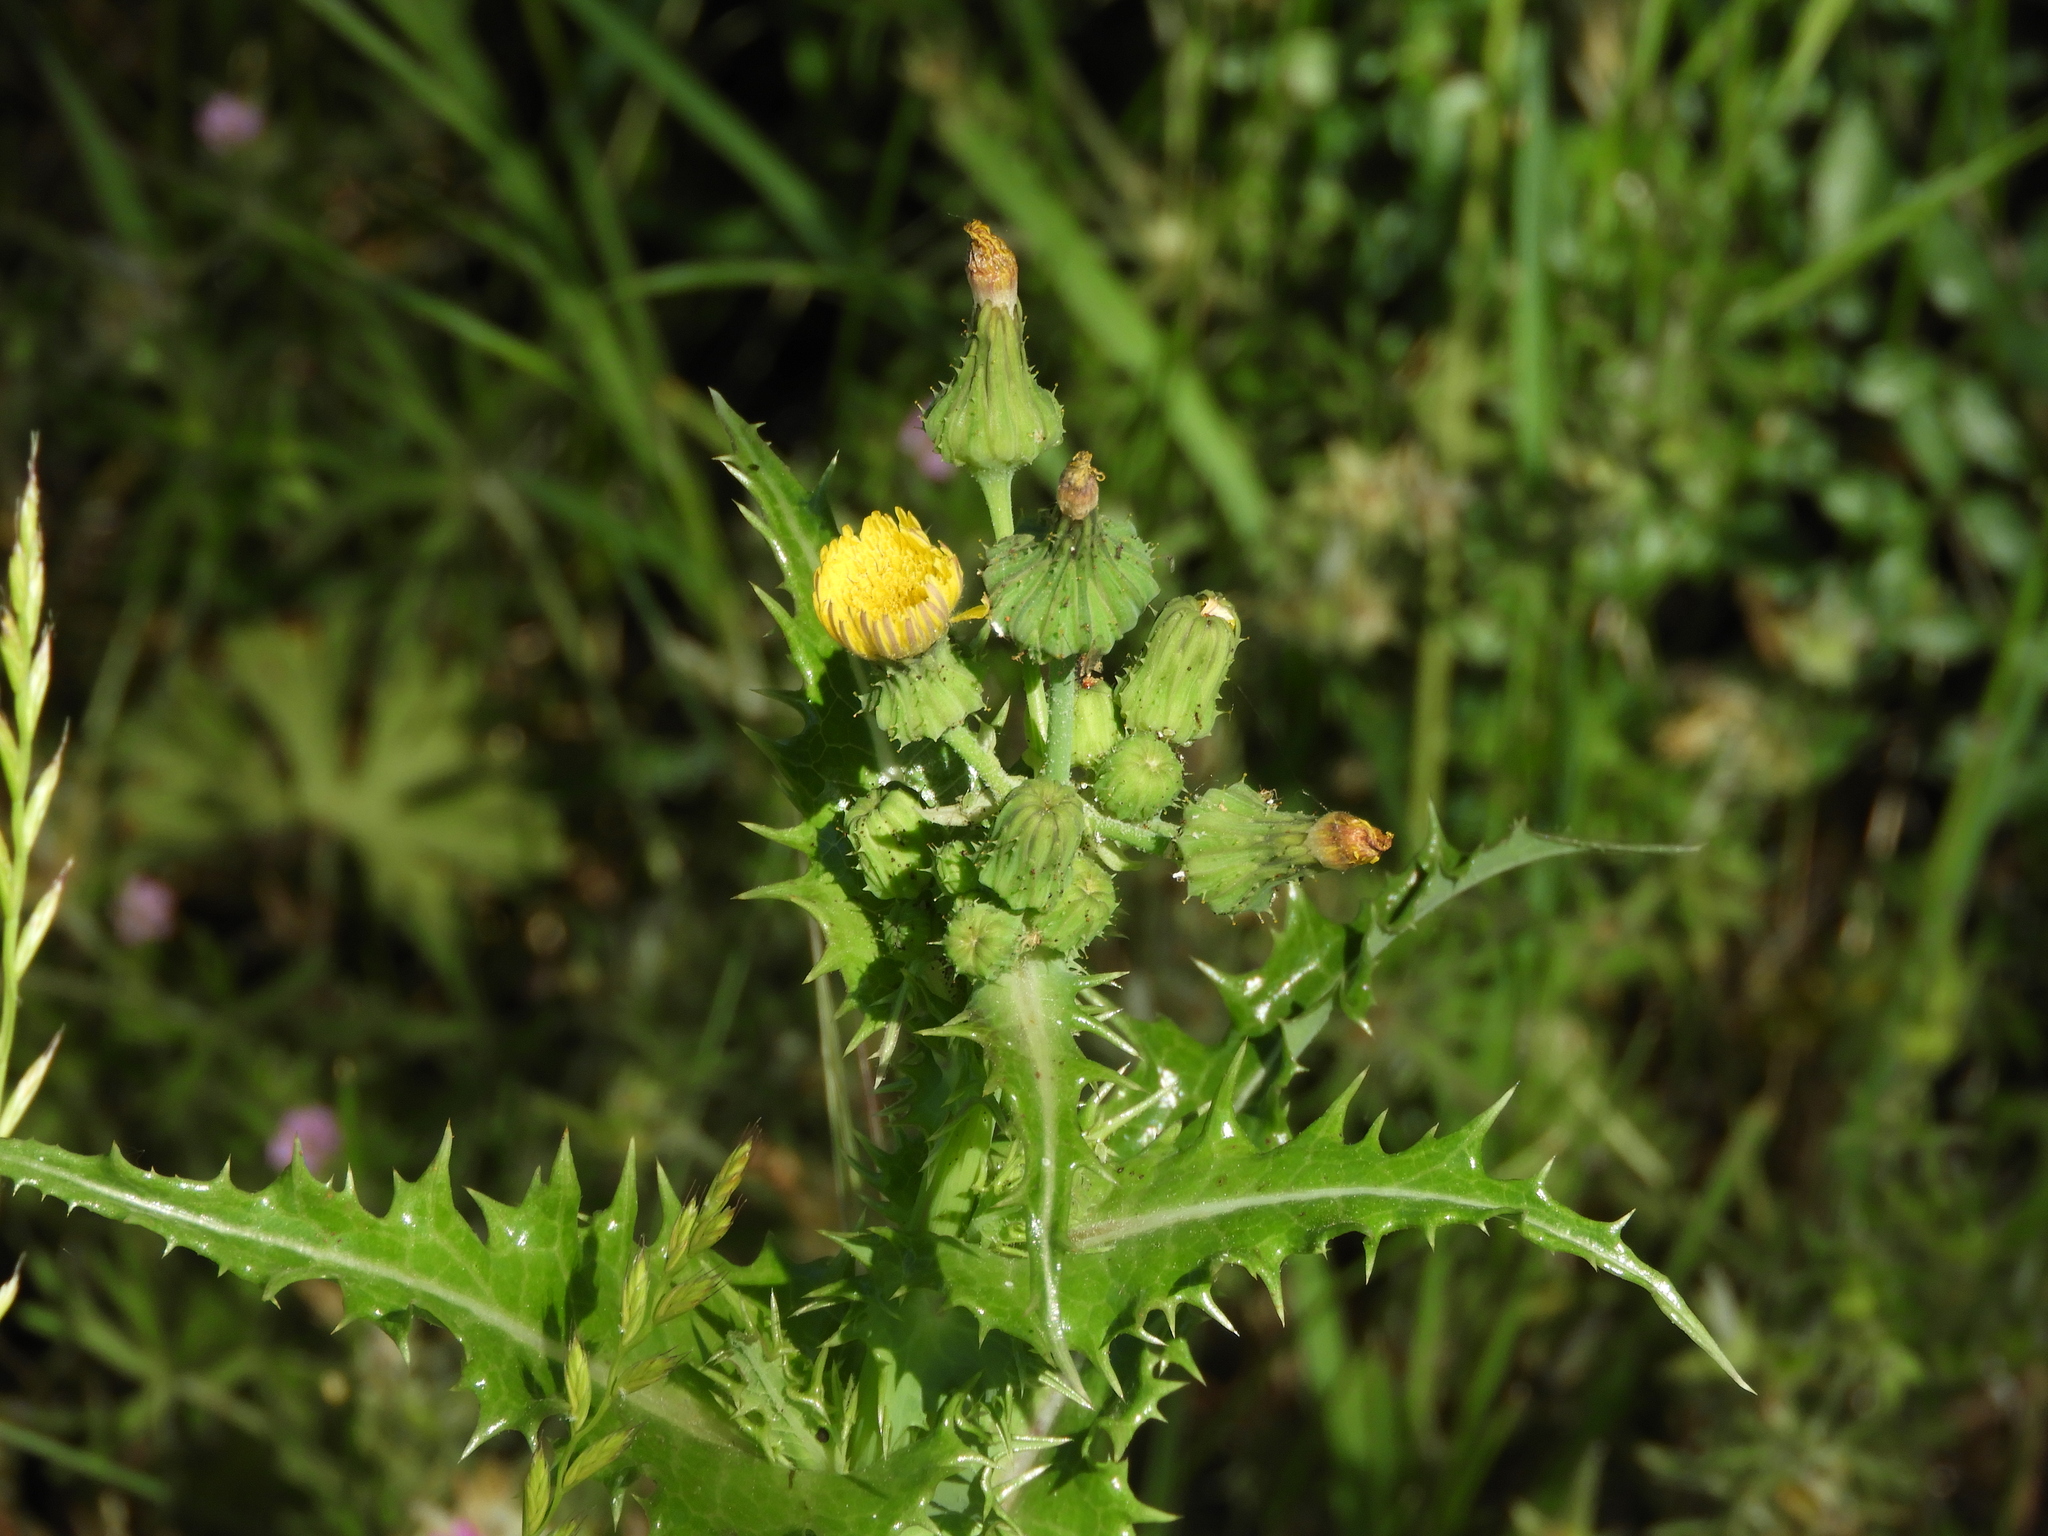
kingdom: Plantae
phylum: Tracheophyta
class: Magnoliopsida
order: Asterales
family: Asteraceae
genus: Sonchus
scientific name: Sonchus asper
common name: Prickly sow-thistle
